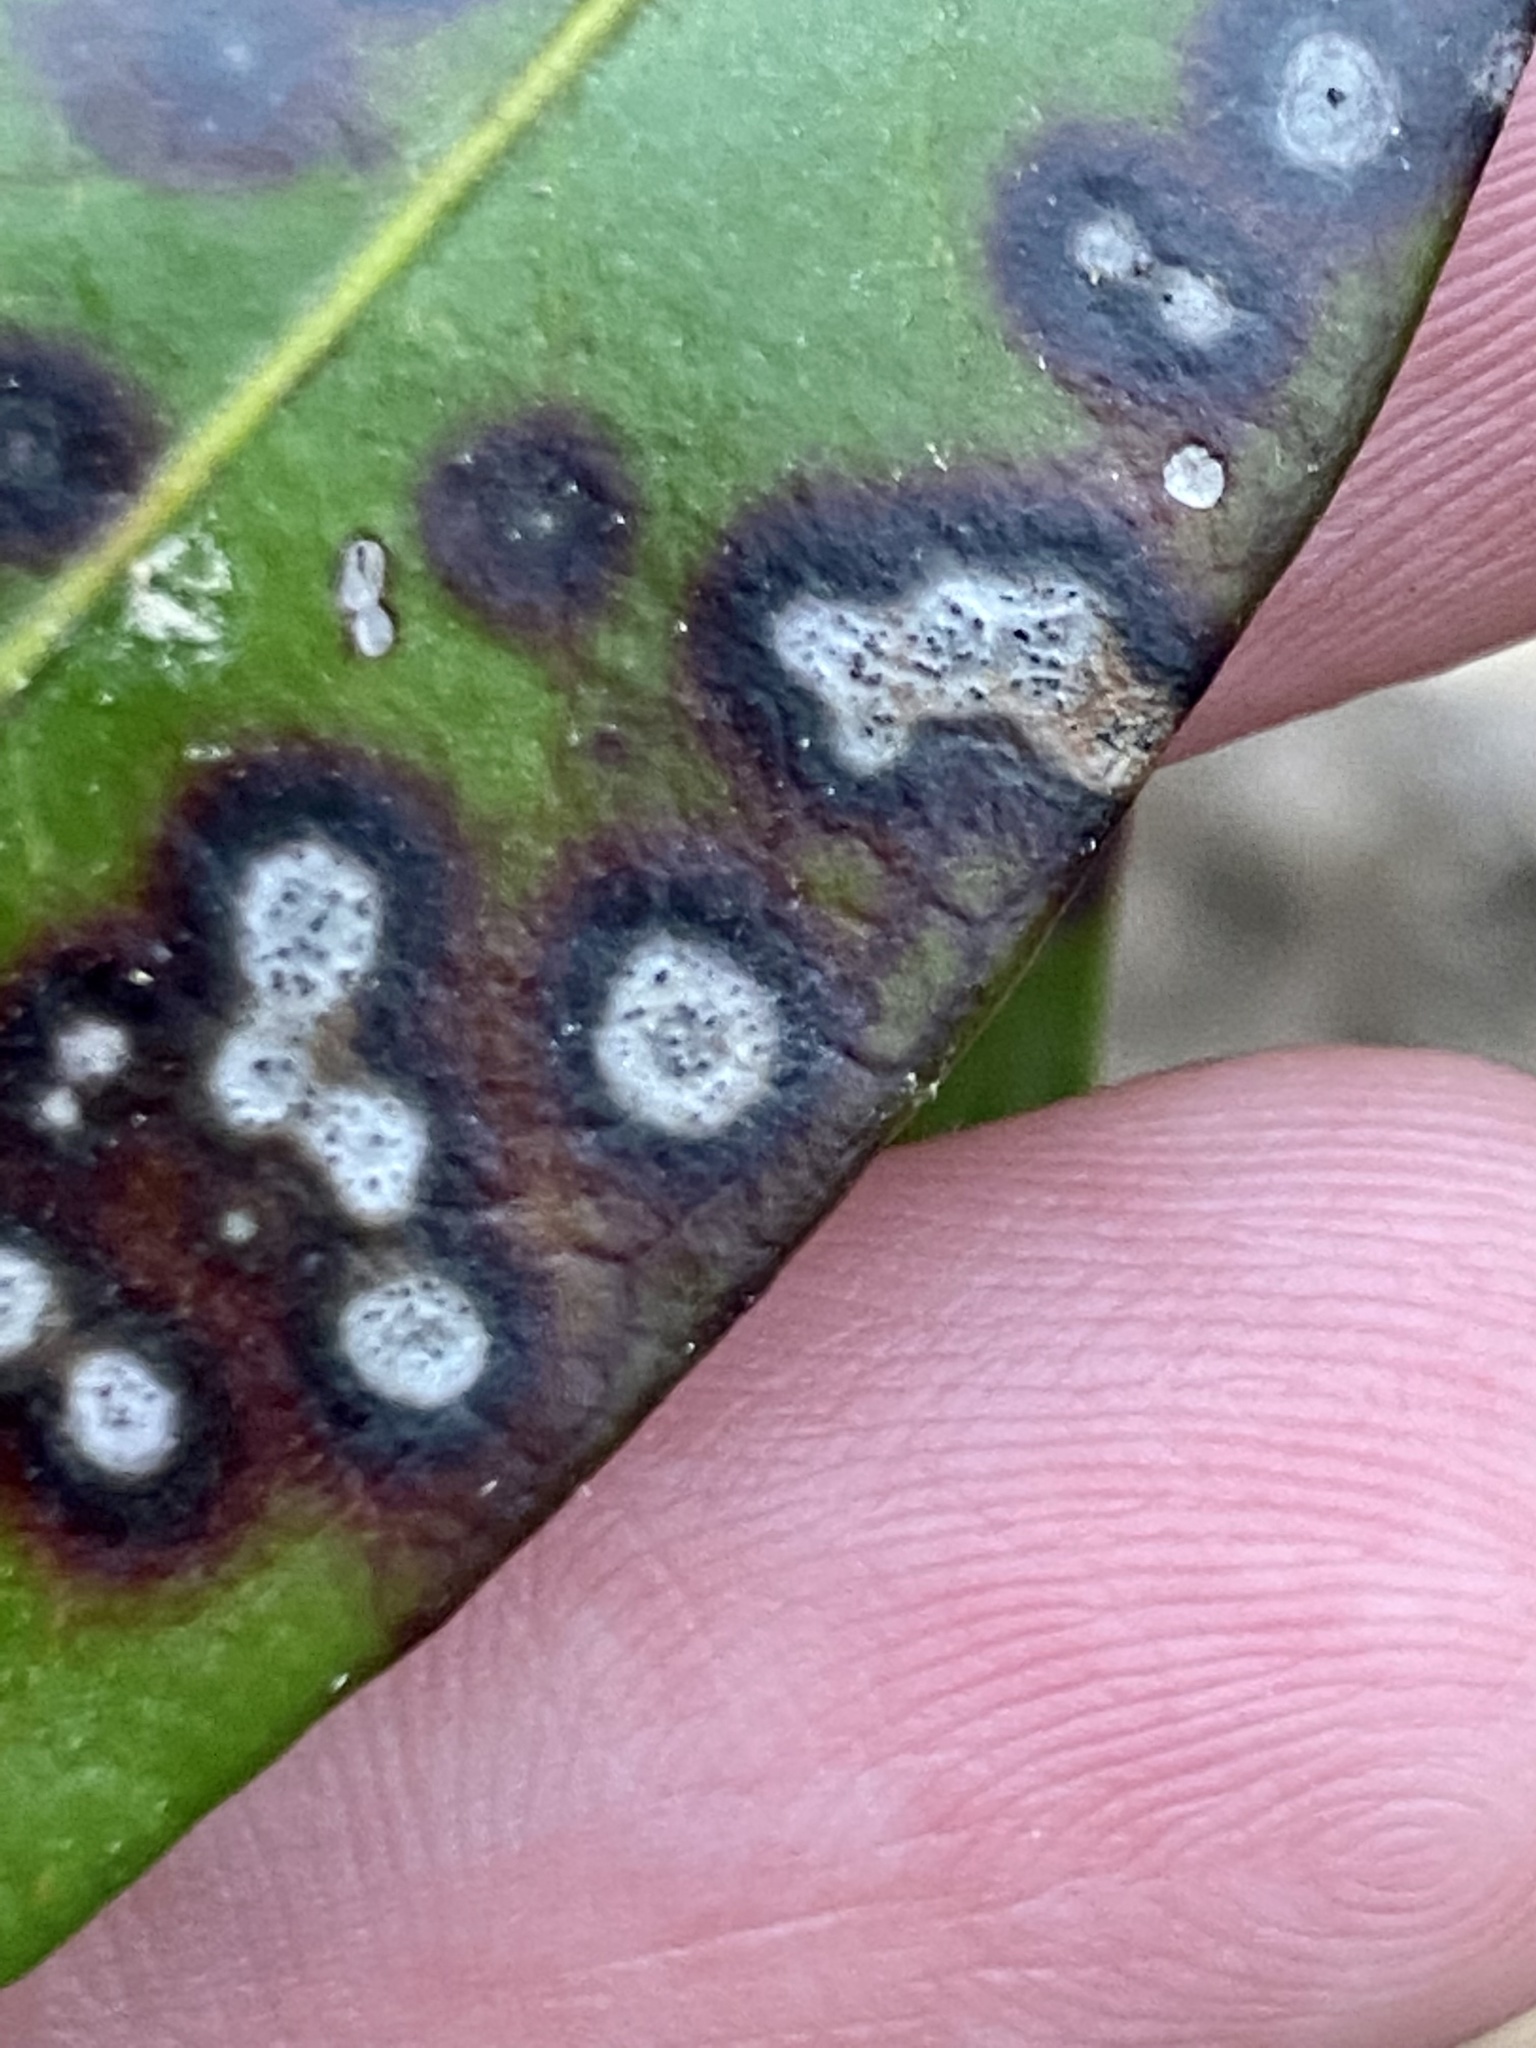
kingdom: Fungi
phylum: Ascomycota
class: Dothideomycetes
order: Mycosphaerellales
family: Mycosphaerellaceae
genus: Mycosphaerella
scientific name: Mycosphaerella colorata
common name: Mountain laurel leaf spot
